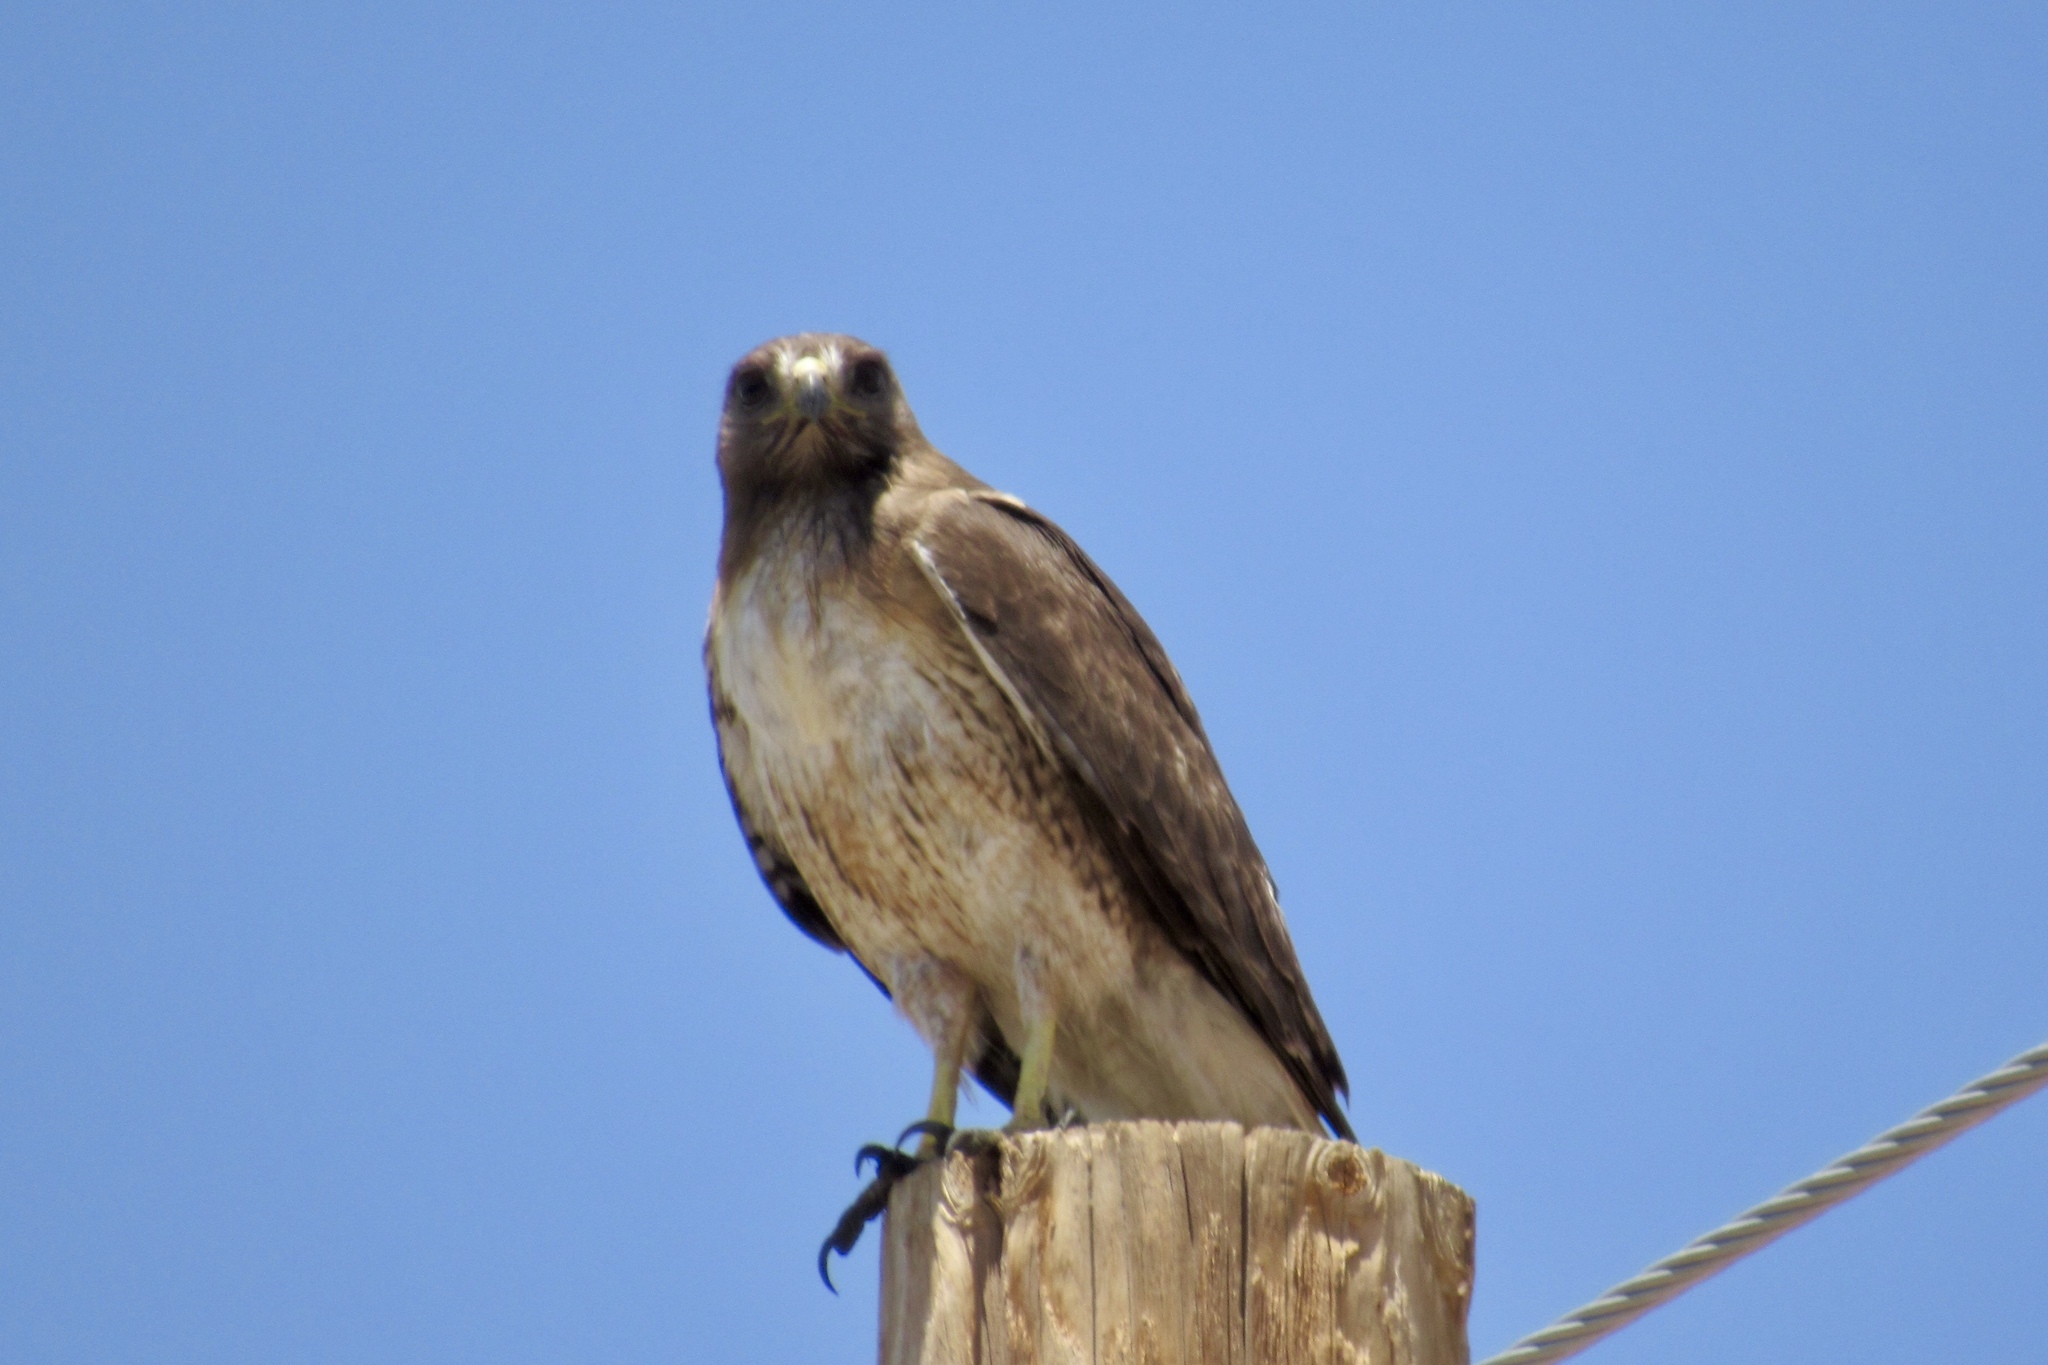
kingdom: Animalia
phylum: Chordata
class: Aves
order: Accipitriformes
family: Accipitridae
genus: Buteo
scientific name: Buteo jamaicensis
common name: Red-tailed hawk
